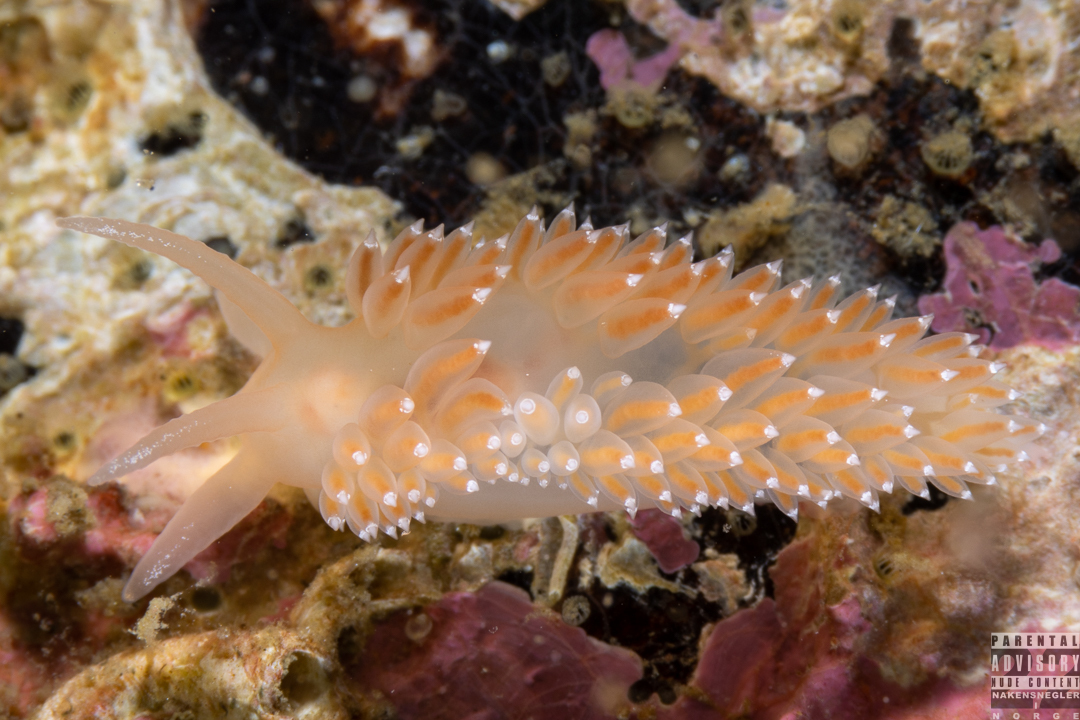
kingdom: Animalia
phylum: Mollusca
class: Gastropoda
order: Nudibranchia
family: Coryphellidae
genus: Coryphella
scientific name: Coryphella verrucosa
